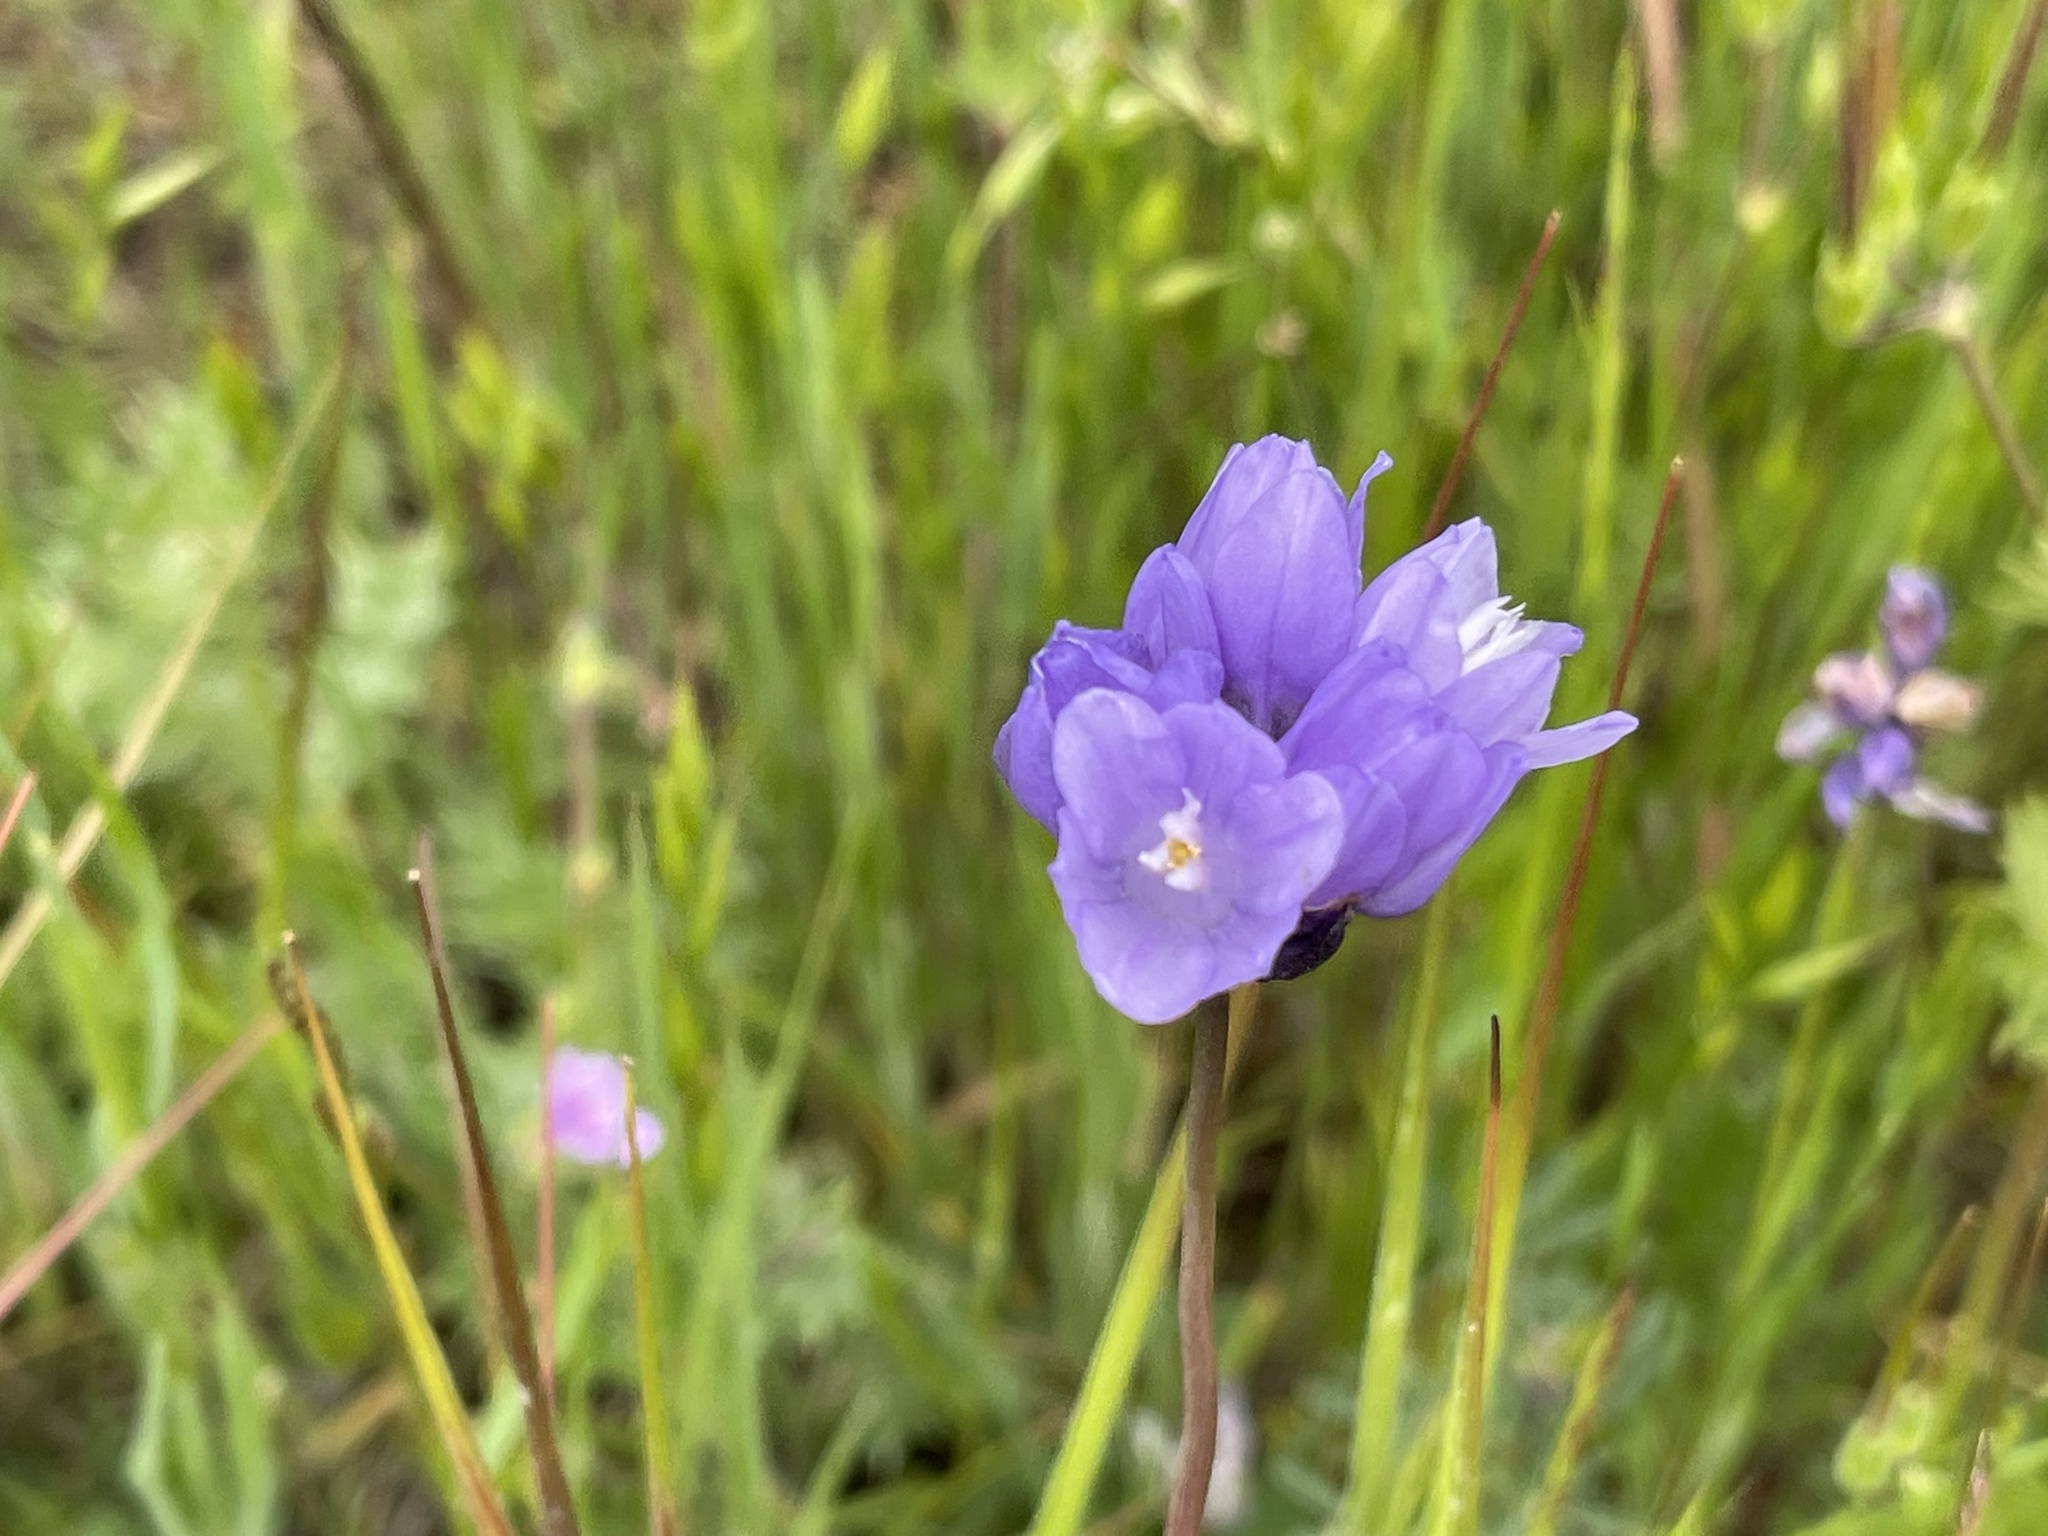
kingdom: Plantae
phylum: Tracheophyta
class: Liliopsida
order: Asparagales
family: Asparagaceae
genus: Dipterostemon
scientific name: Dipterostemon capitatus
